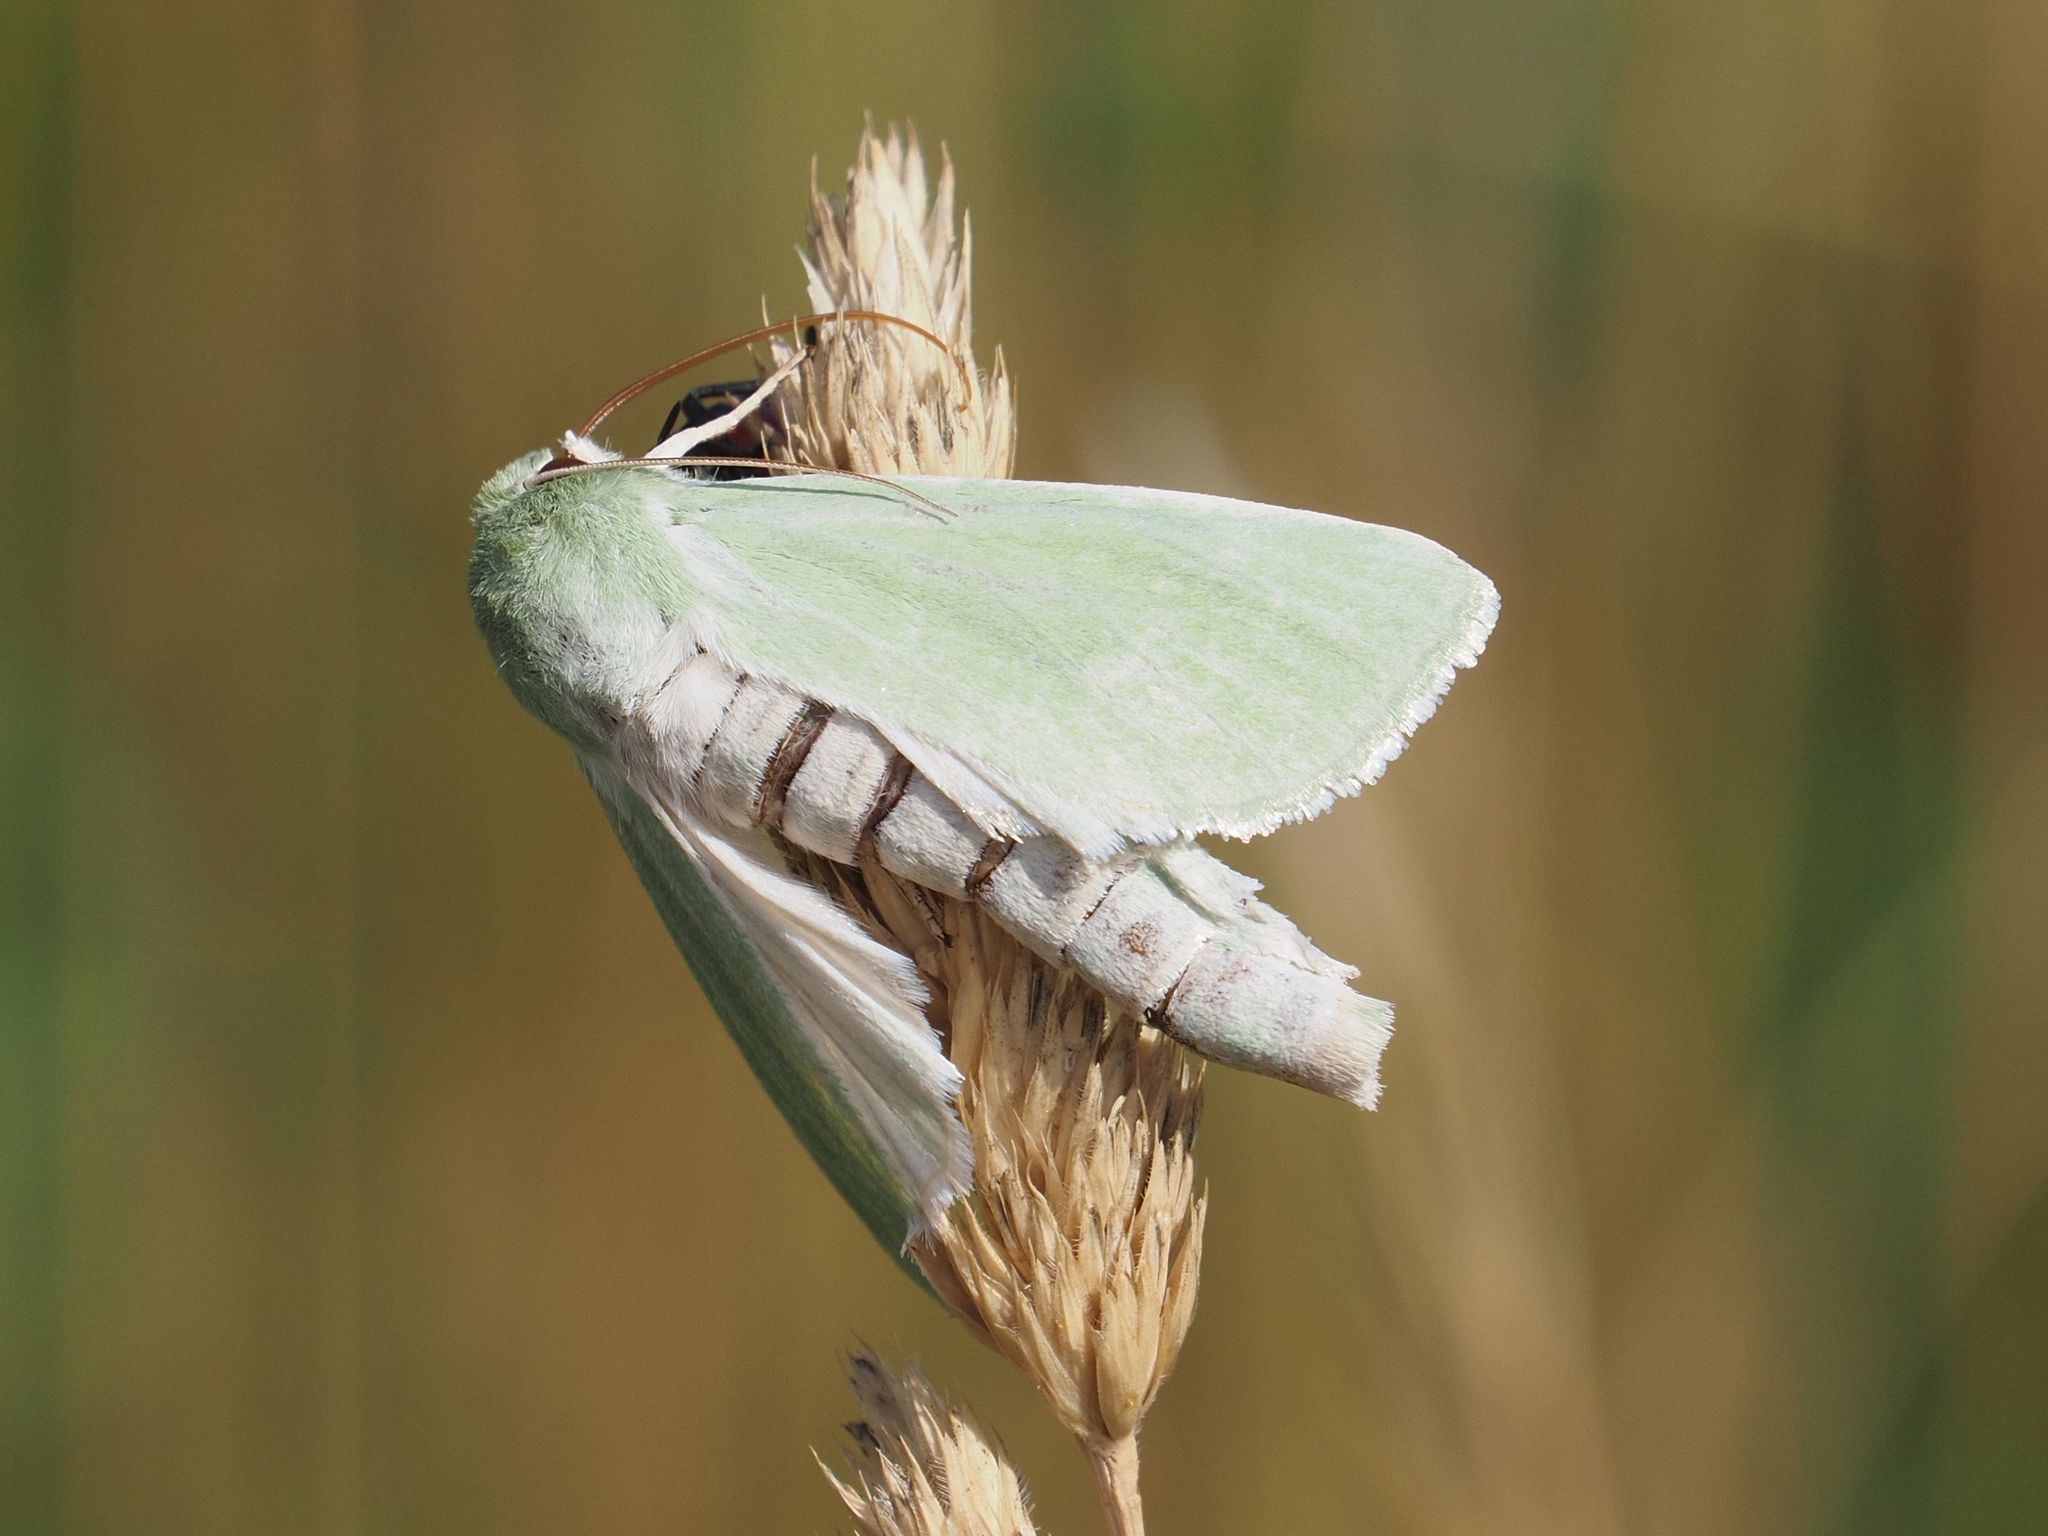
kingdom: Animalia
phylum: Arthropoda
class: Insecta
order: Lepidoptera
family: Noctuidae
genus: Calamia
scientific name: Calamia tridens
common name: Burren green
